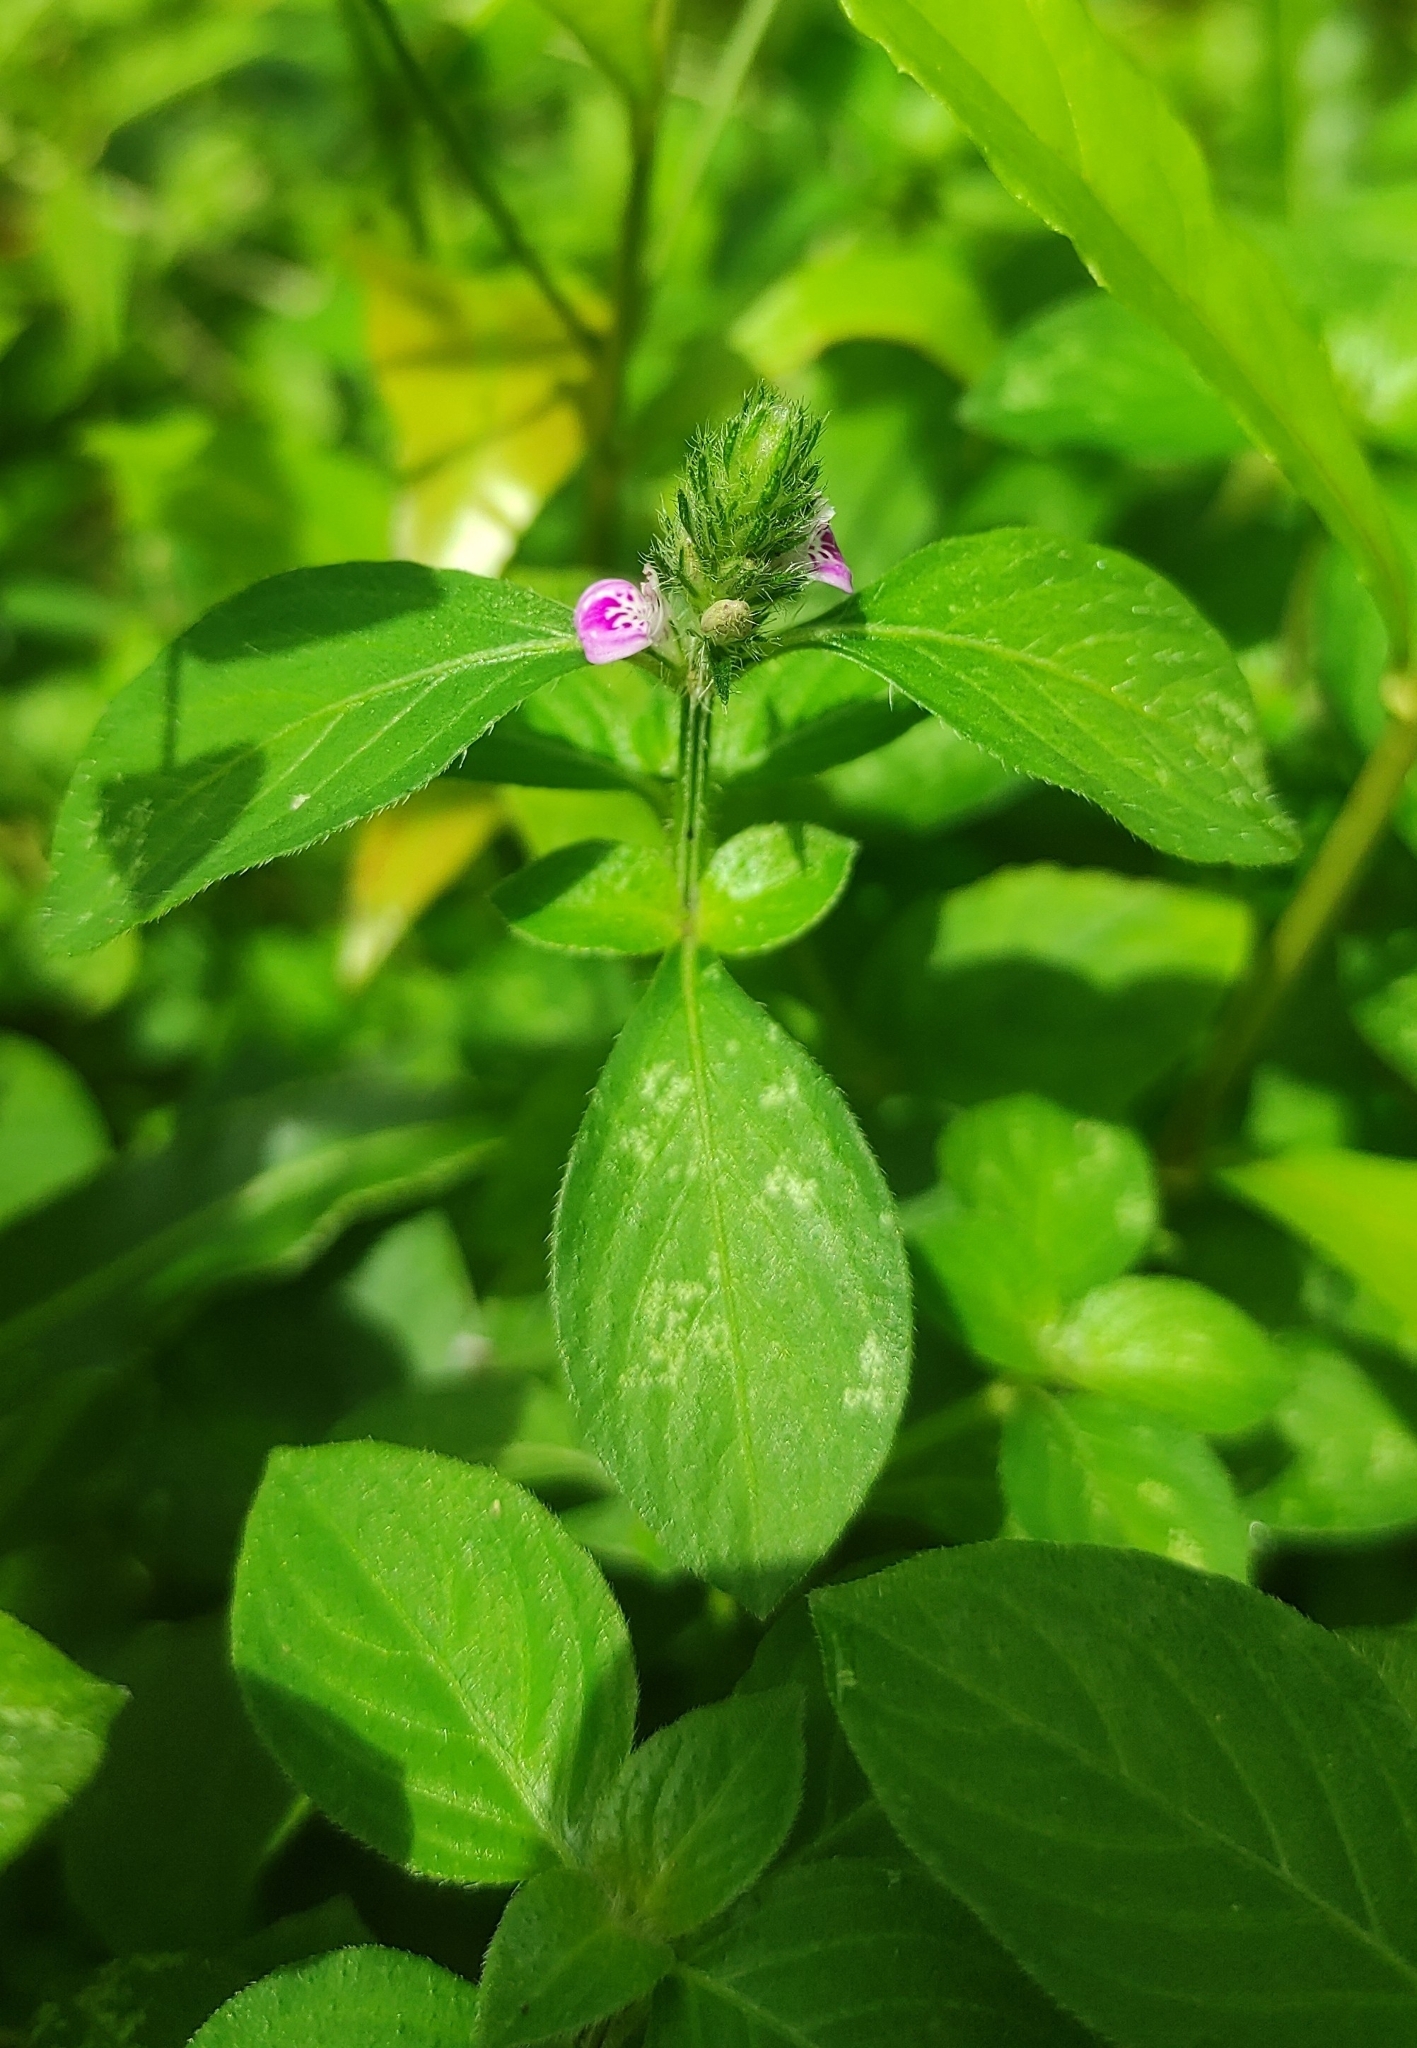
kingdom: Plantae
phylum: Tracheophyta
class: Magnoliopsida
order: Lamiales
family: Acanthaceae
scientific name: Acanthaceae
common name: Acanthaceae
